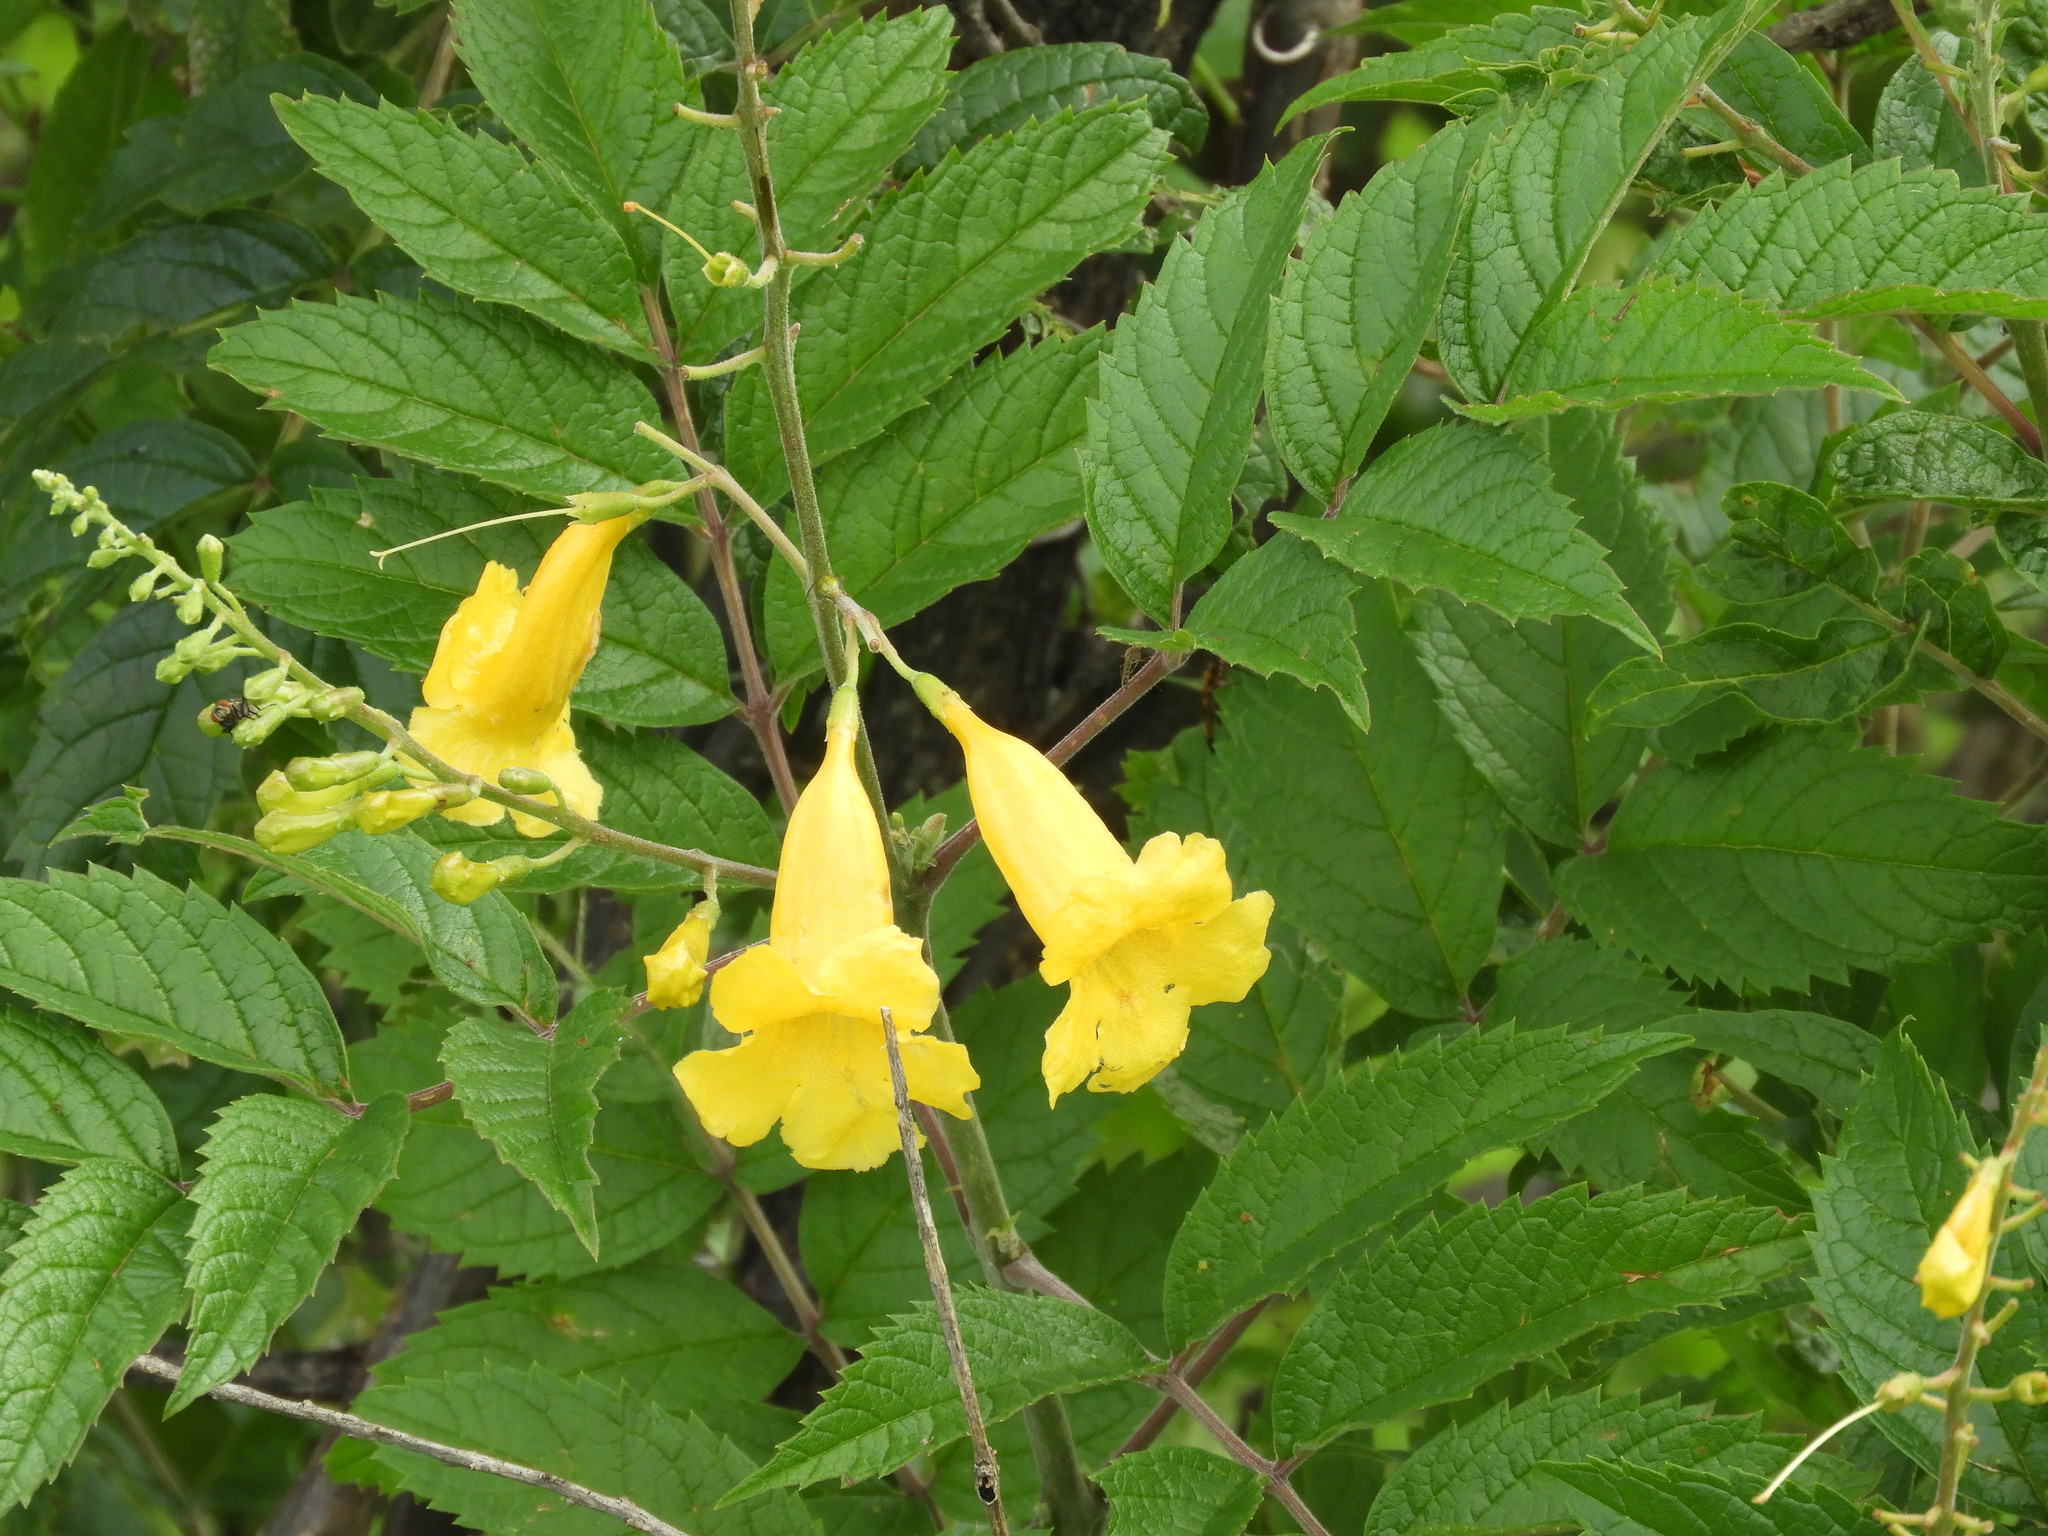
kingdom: Plantae
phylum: Tracheophyta
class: Magnoliopsida
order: Lamiales
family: Bignoniaceae
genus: Tecoma
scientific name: Tecoma stans
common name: Yellow trumpetbush
